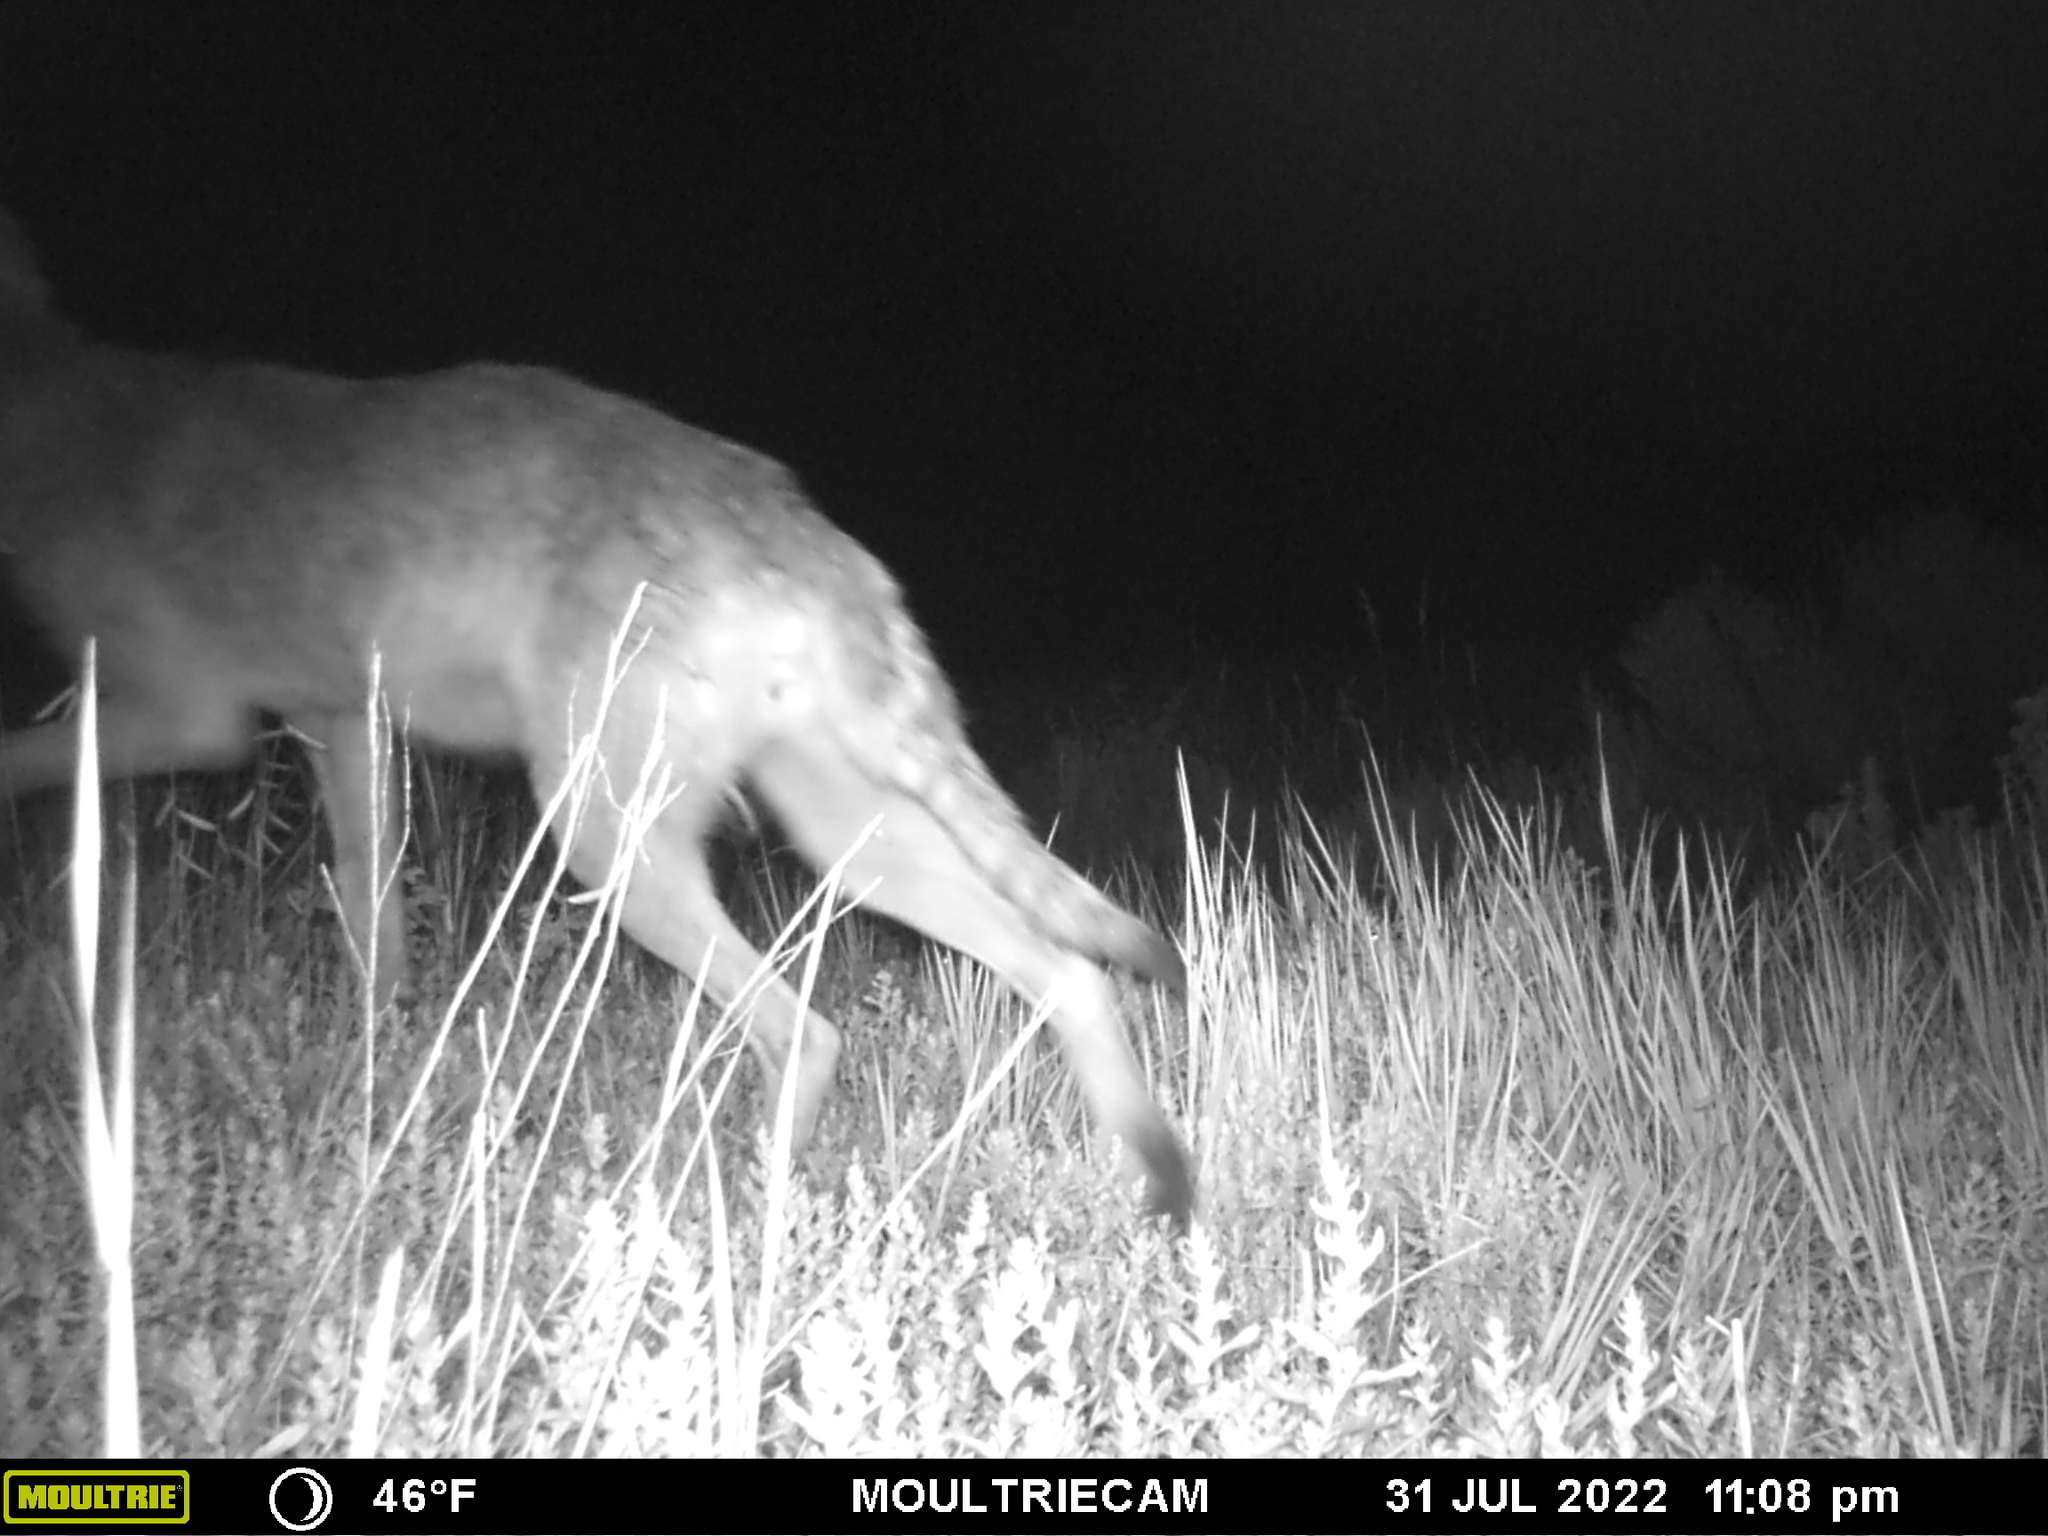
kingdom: Animalia
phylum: Chordata
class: Mammalia
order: Carnivora
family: Canidae
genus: Canis
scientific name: Canis latrans
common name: Coyote
